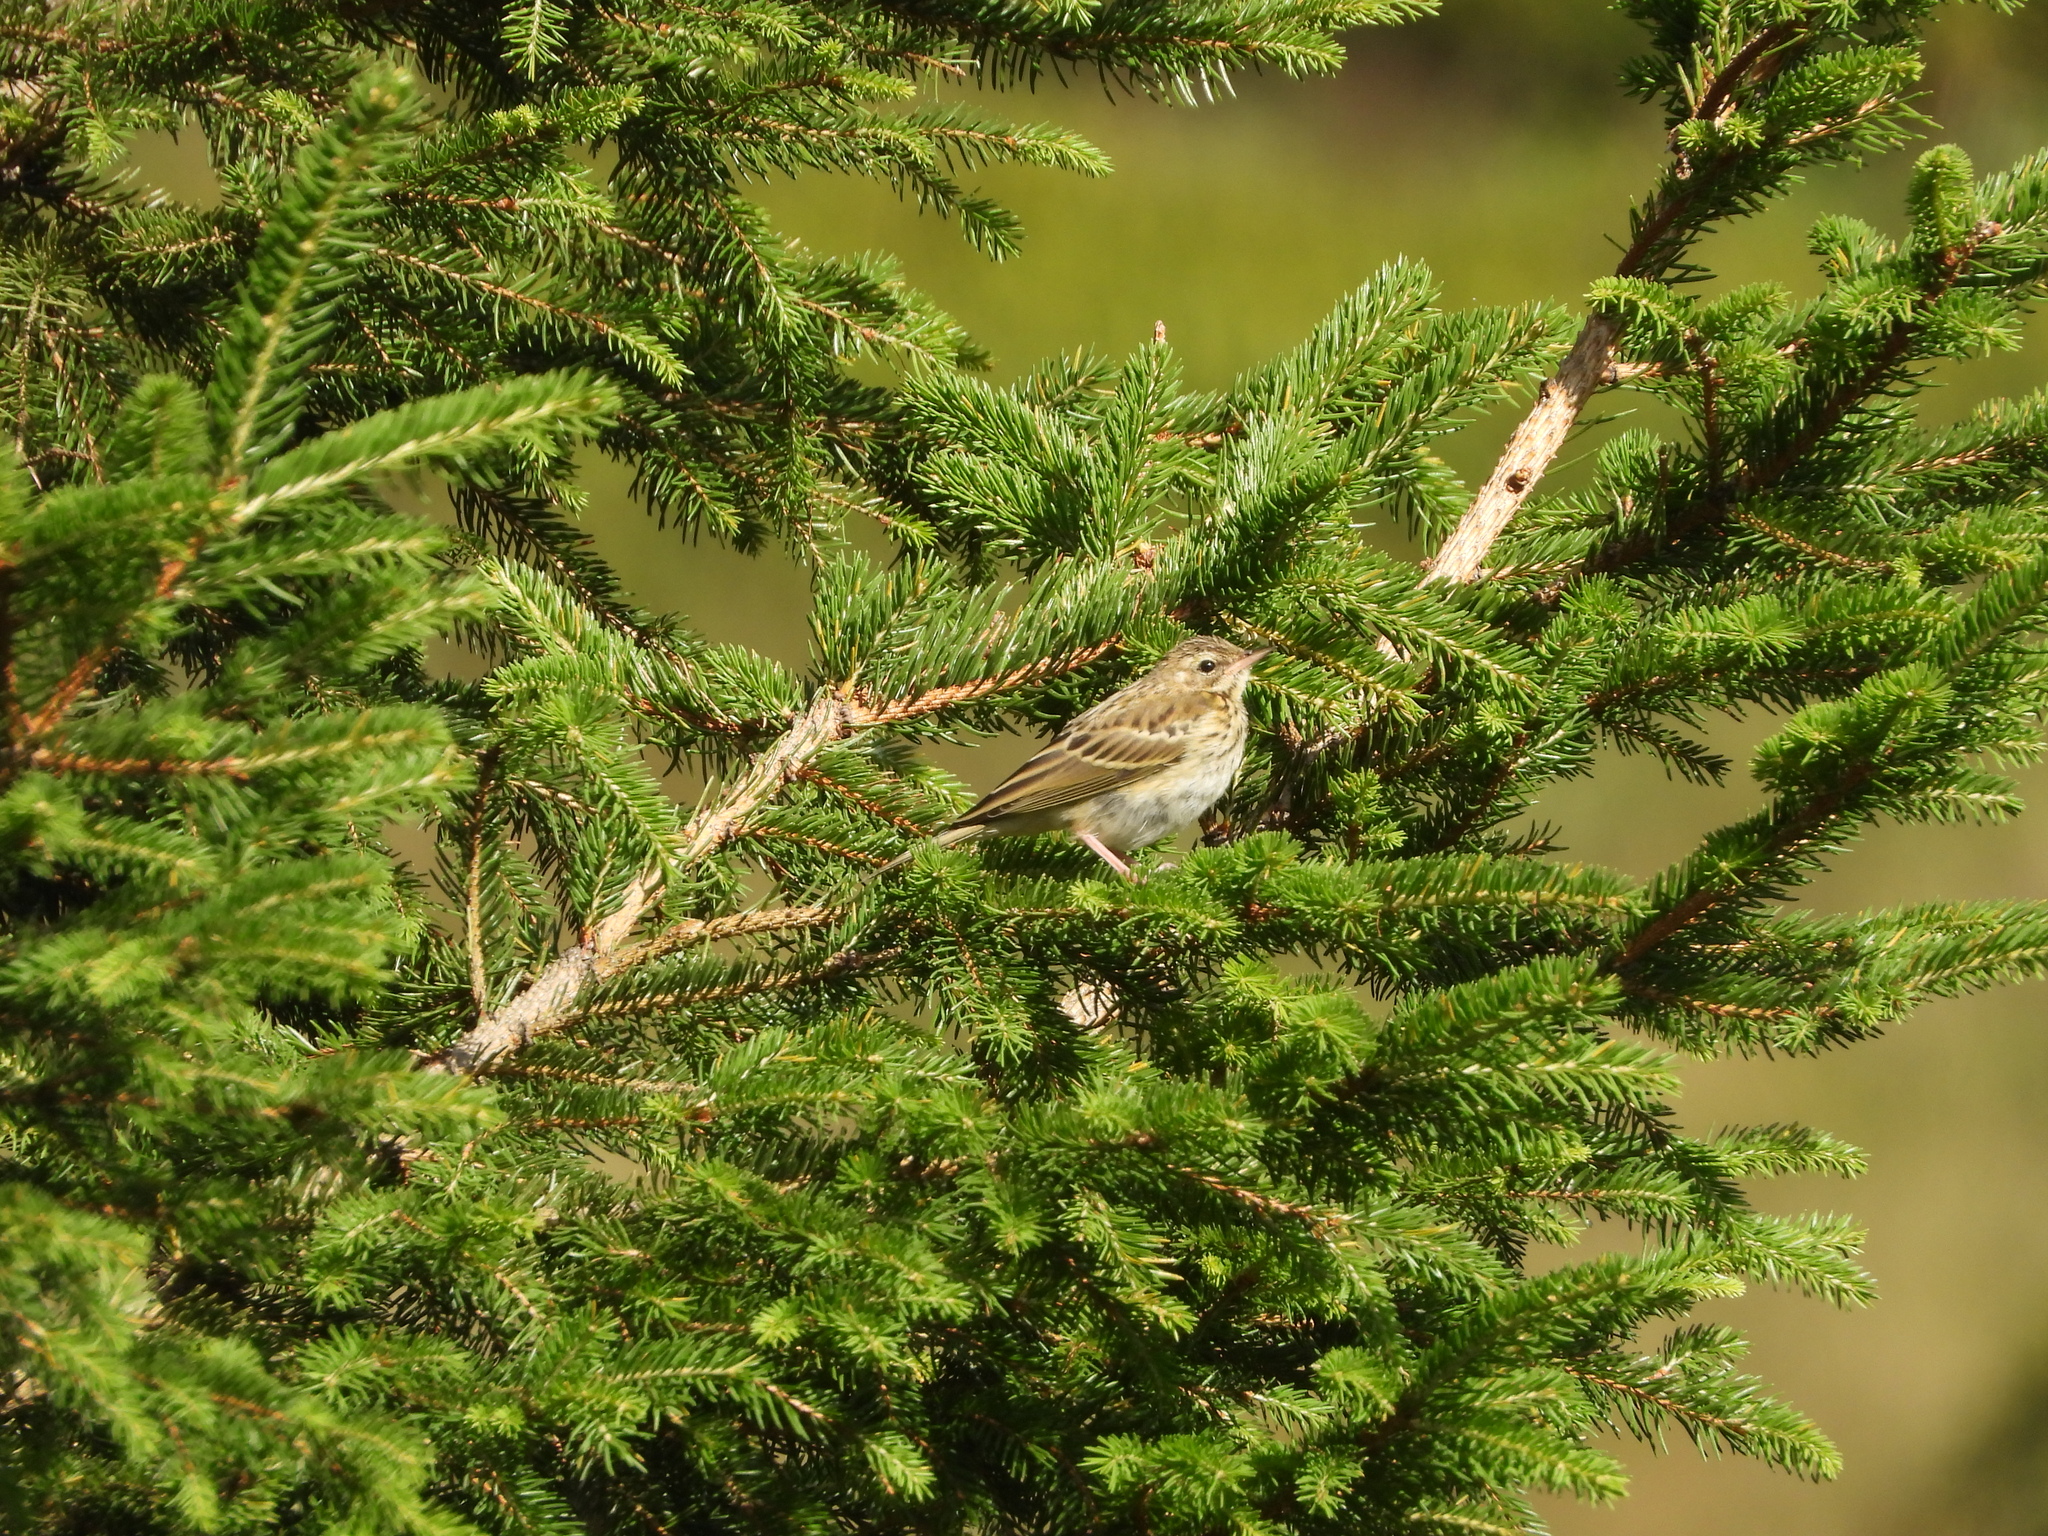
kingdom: Animalia
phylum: Chordata
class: Aves
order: Passeriformes
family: Motacillidae
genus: Anthus
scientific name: Anthus trivialis
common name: Tree pipit
